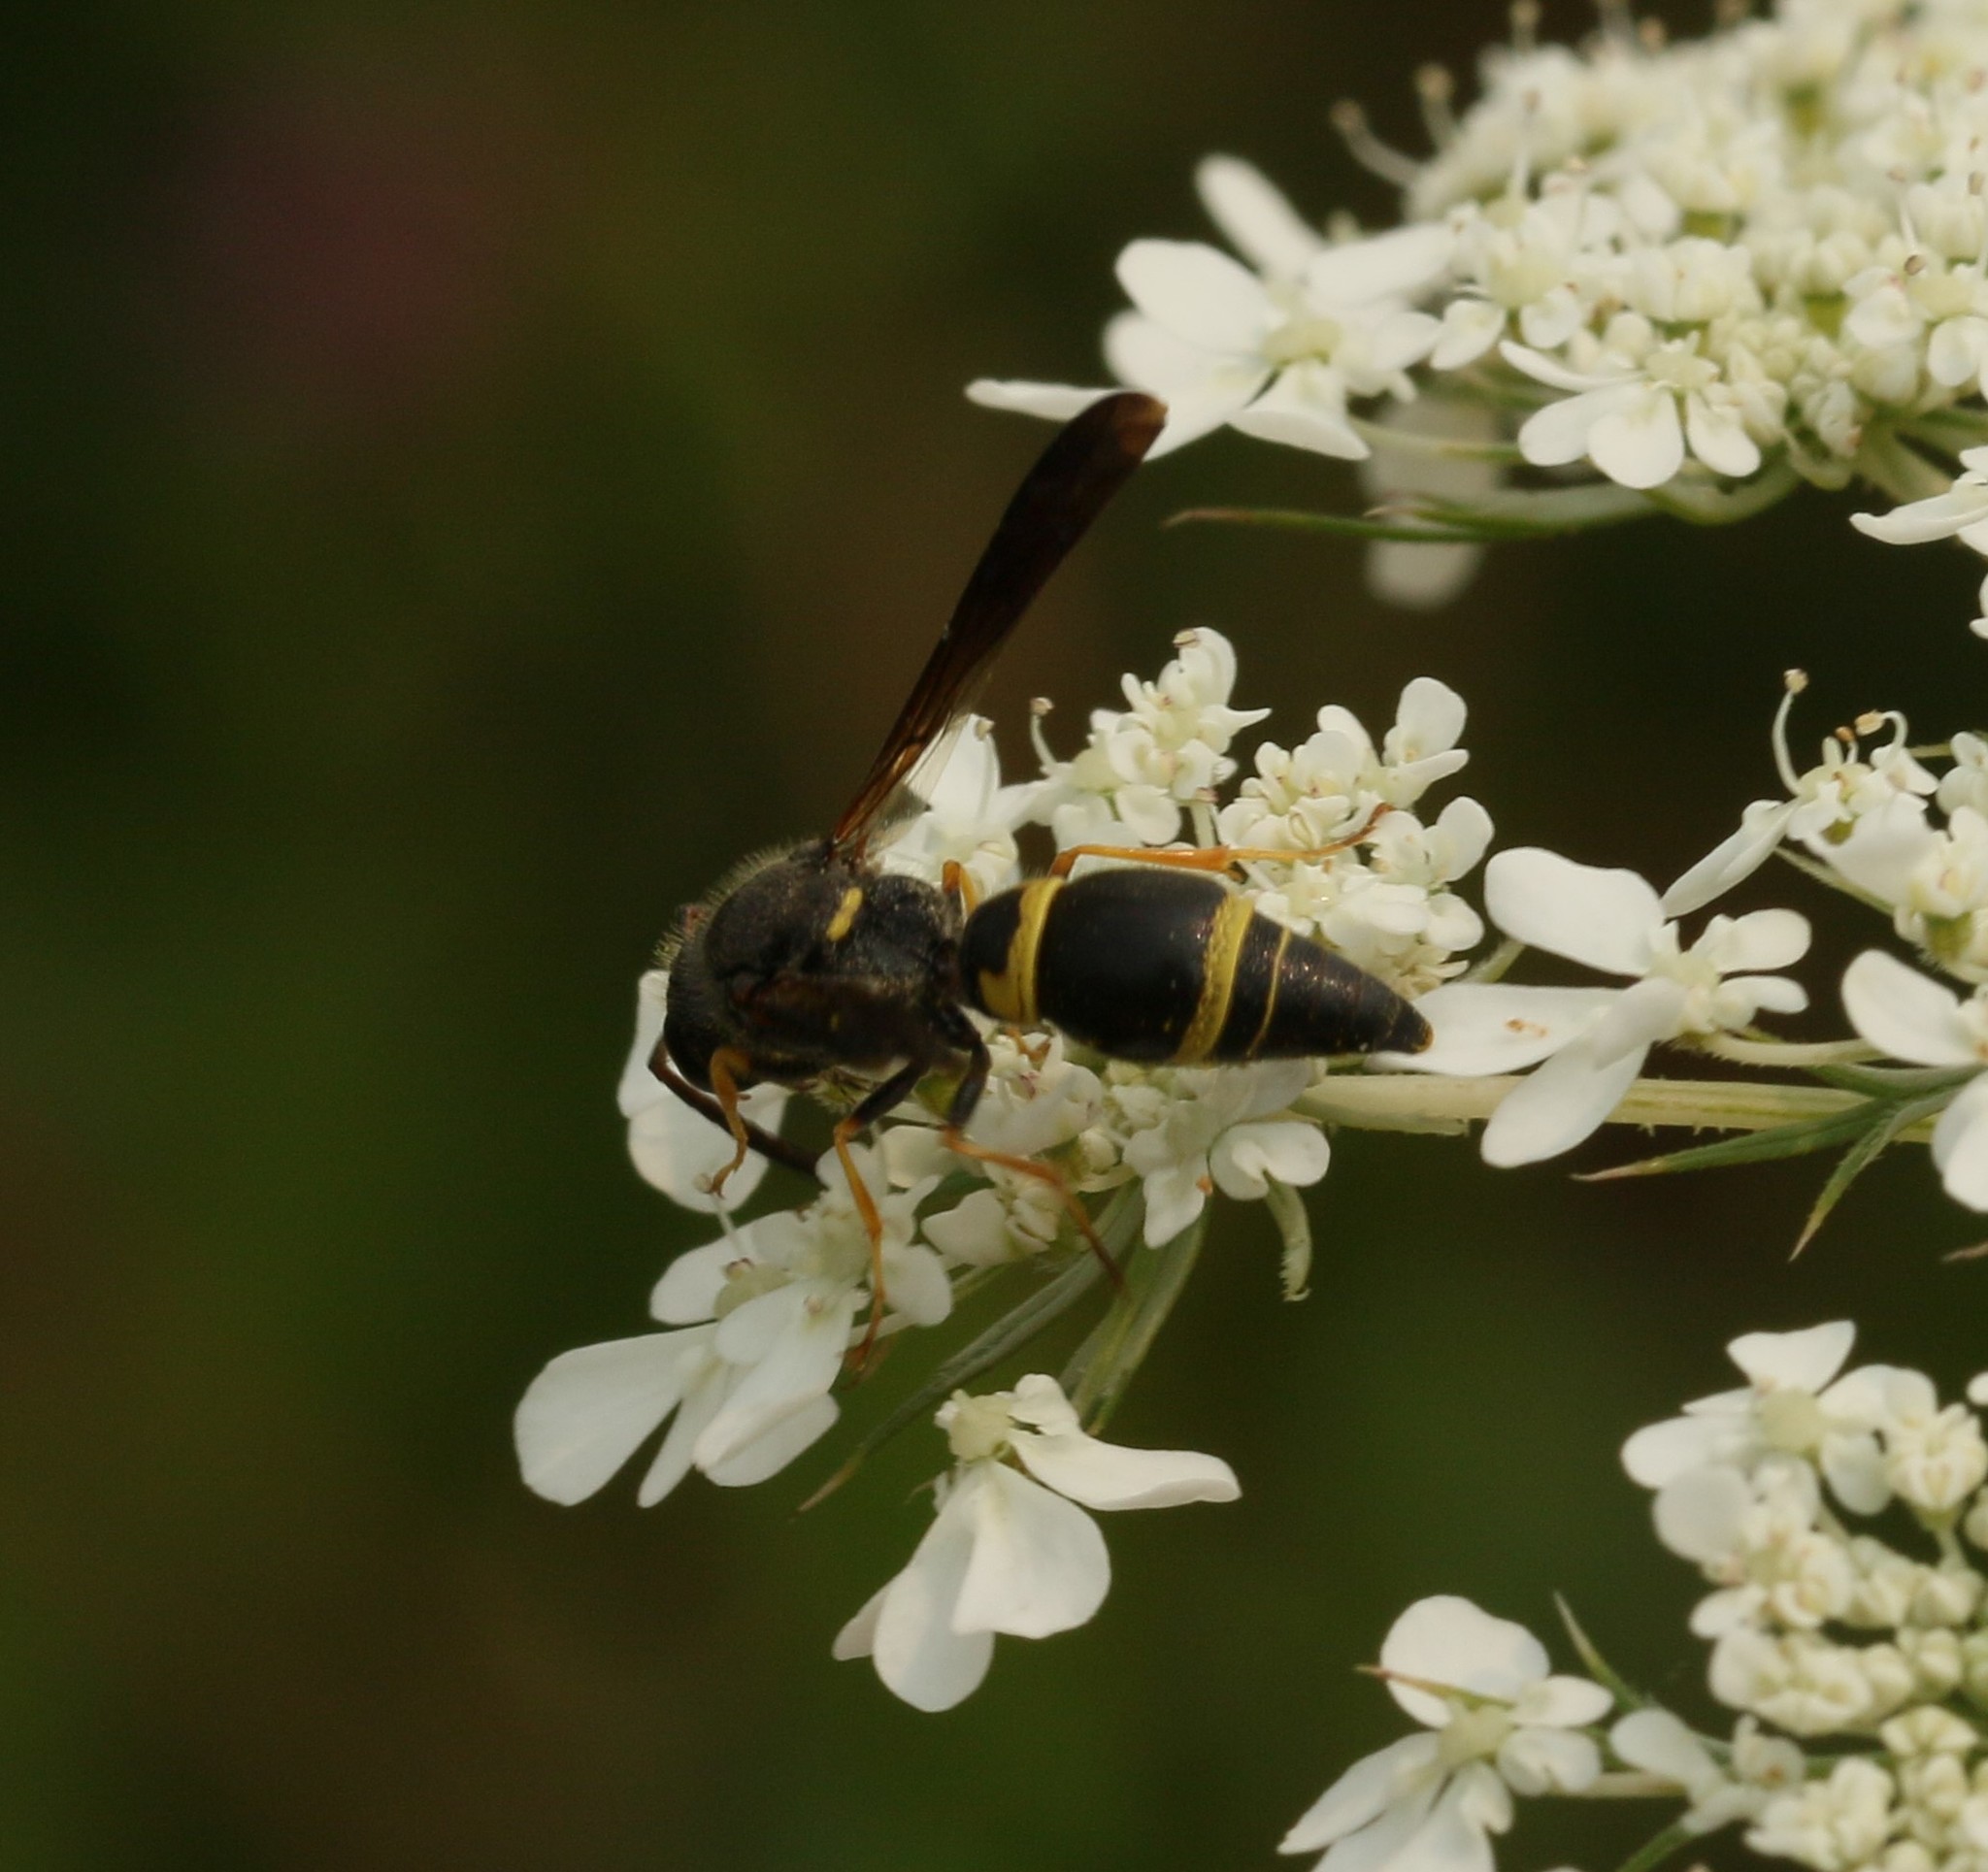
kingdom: Animalia
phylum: Arthropoda
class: Insecta
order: Hymenoptera
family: Vespidae
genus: Ancistrocerus
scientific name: Ancistrocerus unifasciatus
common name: One-banded mason wasp
